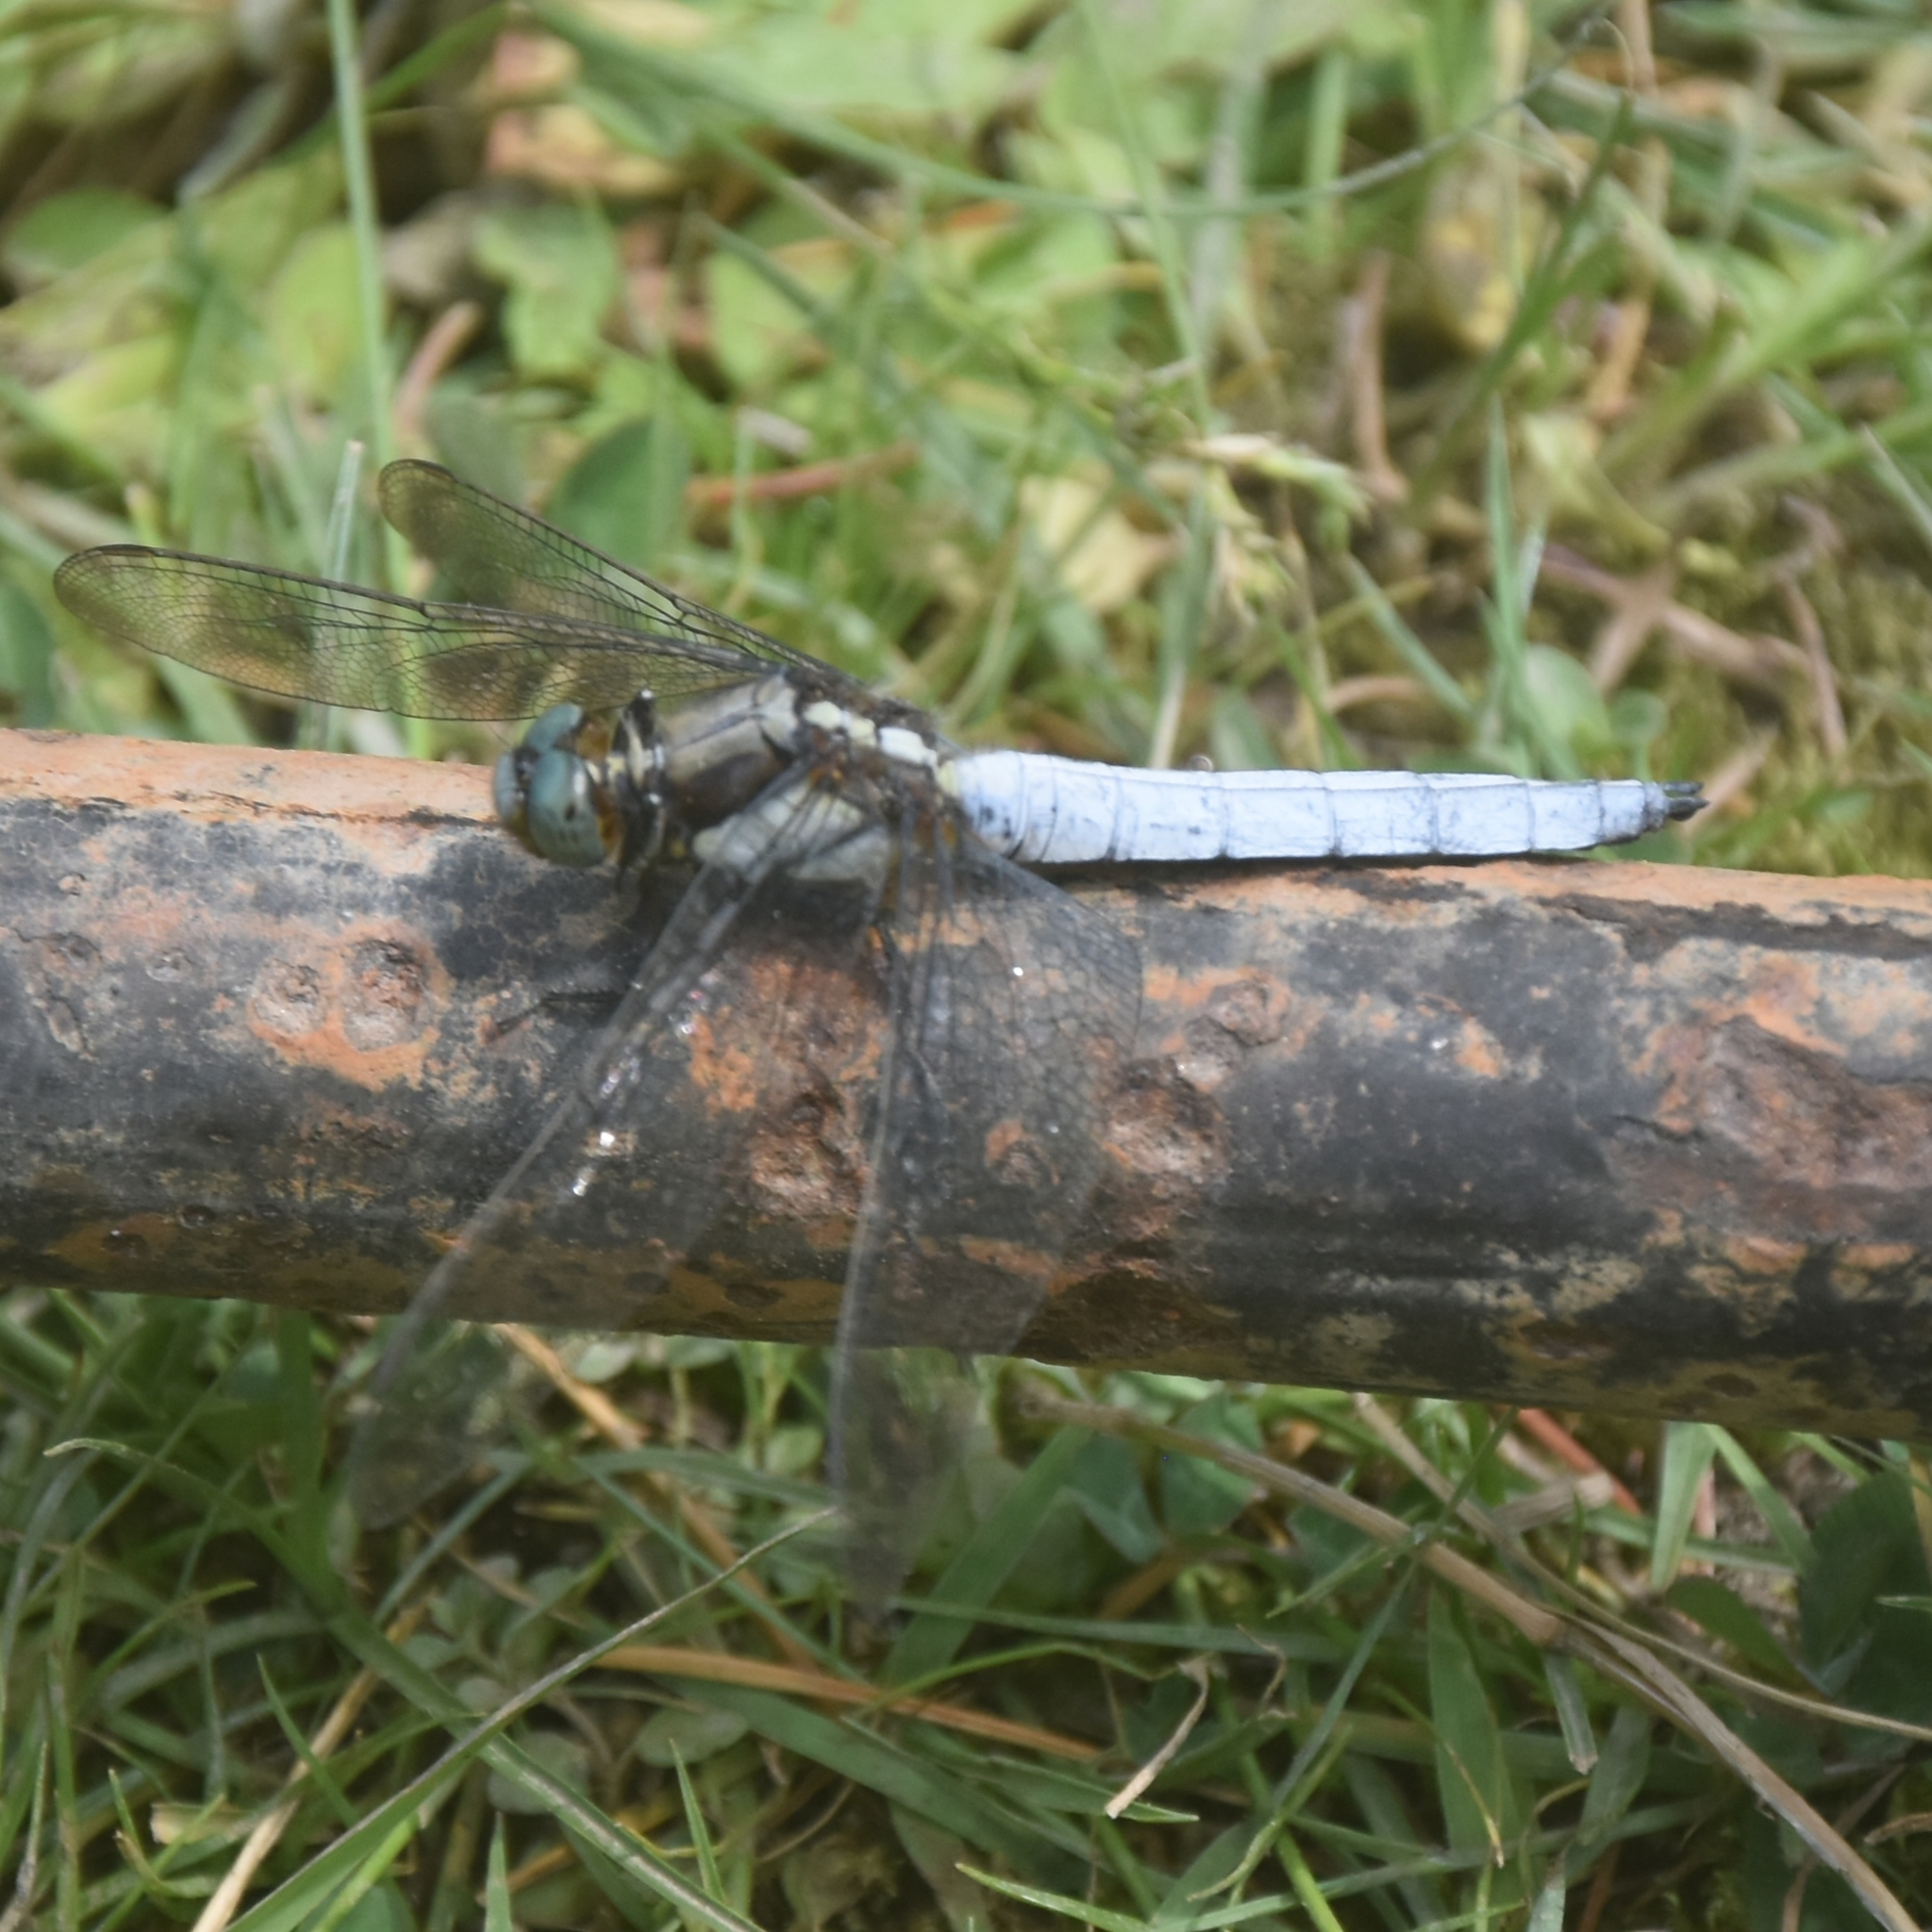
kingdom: Animalia
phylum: Arthropoda
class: Insecta
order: Odonata
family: Libellulidae
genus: Orthetrum
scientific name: Orthetrum internum
